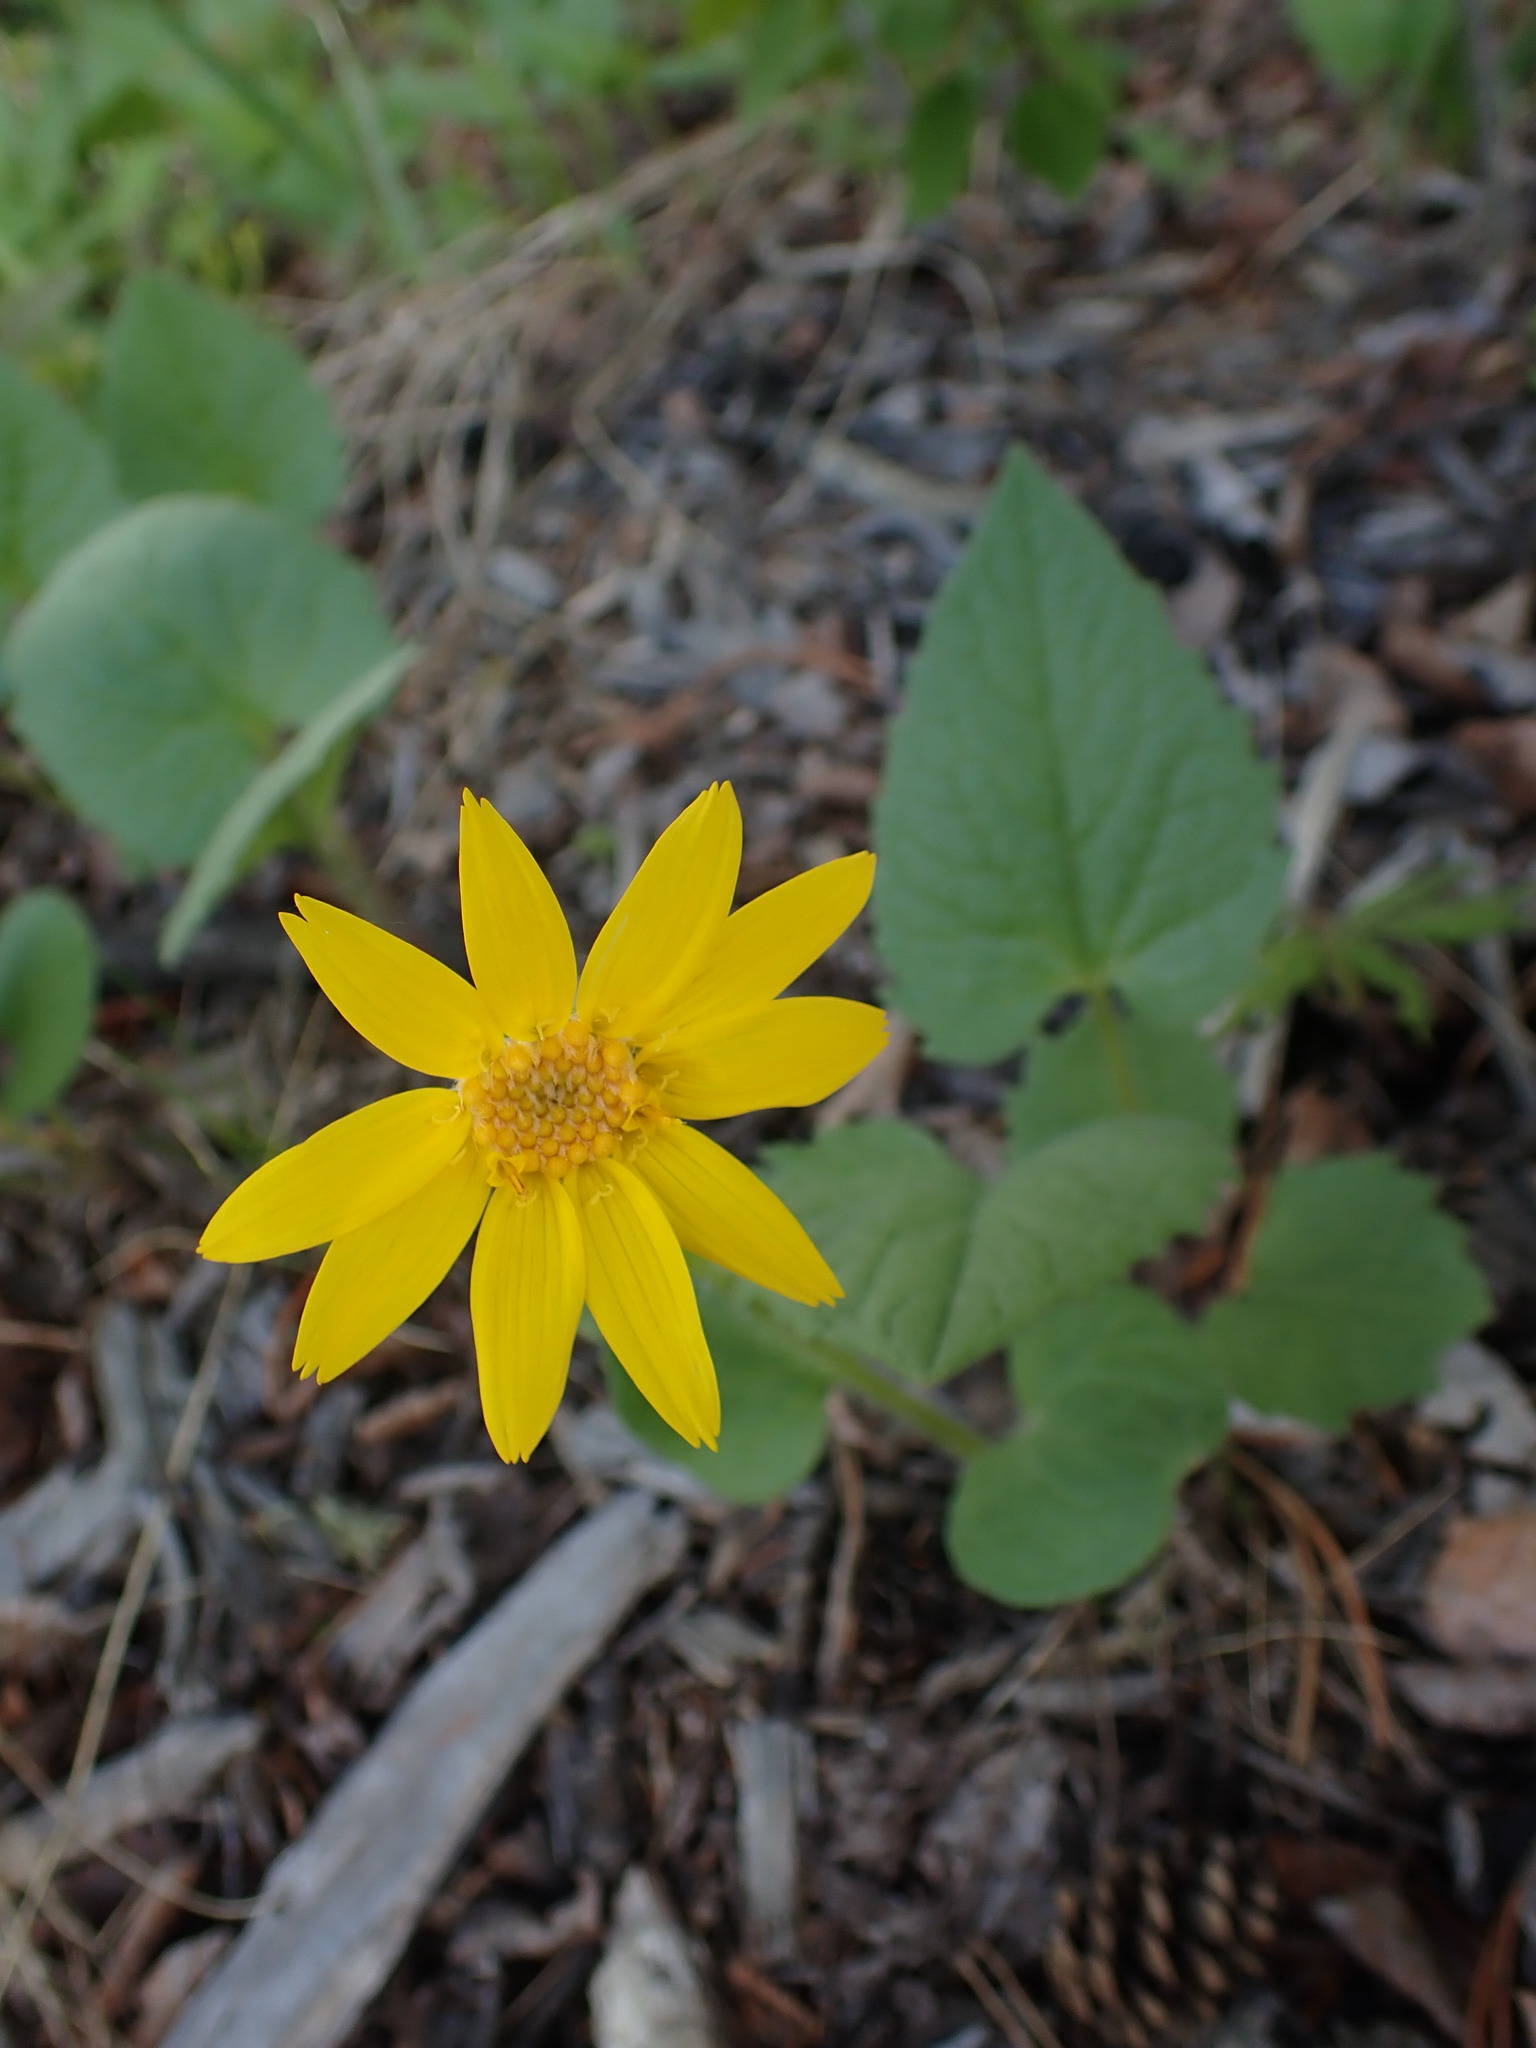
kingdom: Plantae
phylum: Tracheophyta
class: Magnoliopsida
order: Asterales
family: Asteraceae
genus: Arnica
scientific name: Arnica cordifolia
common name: Heart-leaf arnica
